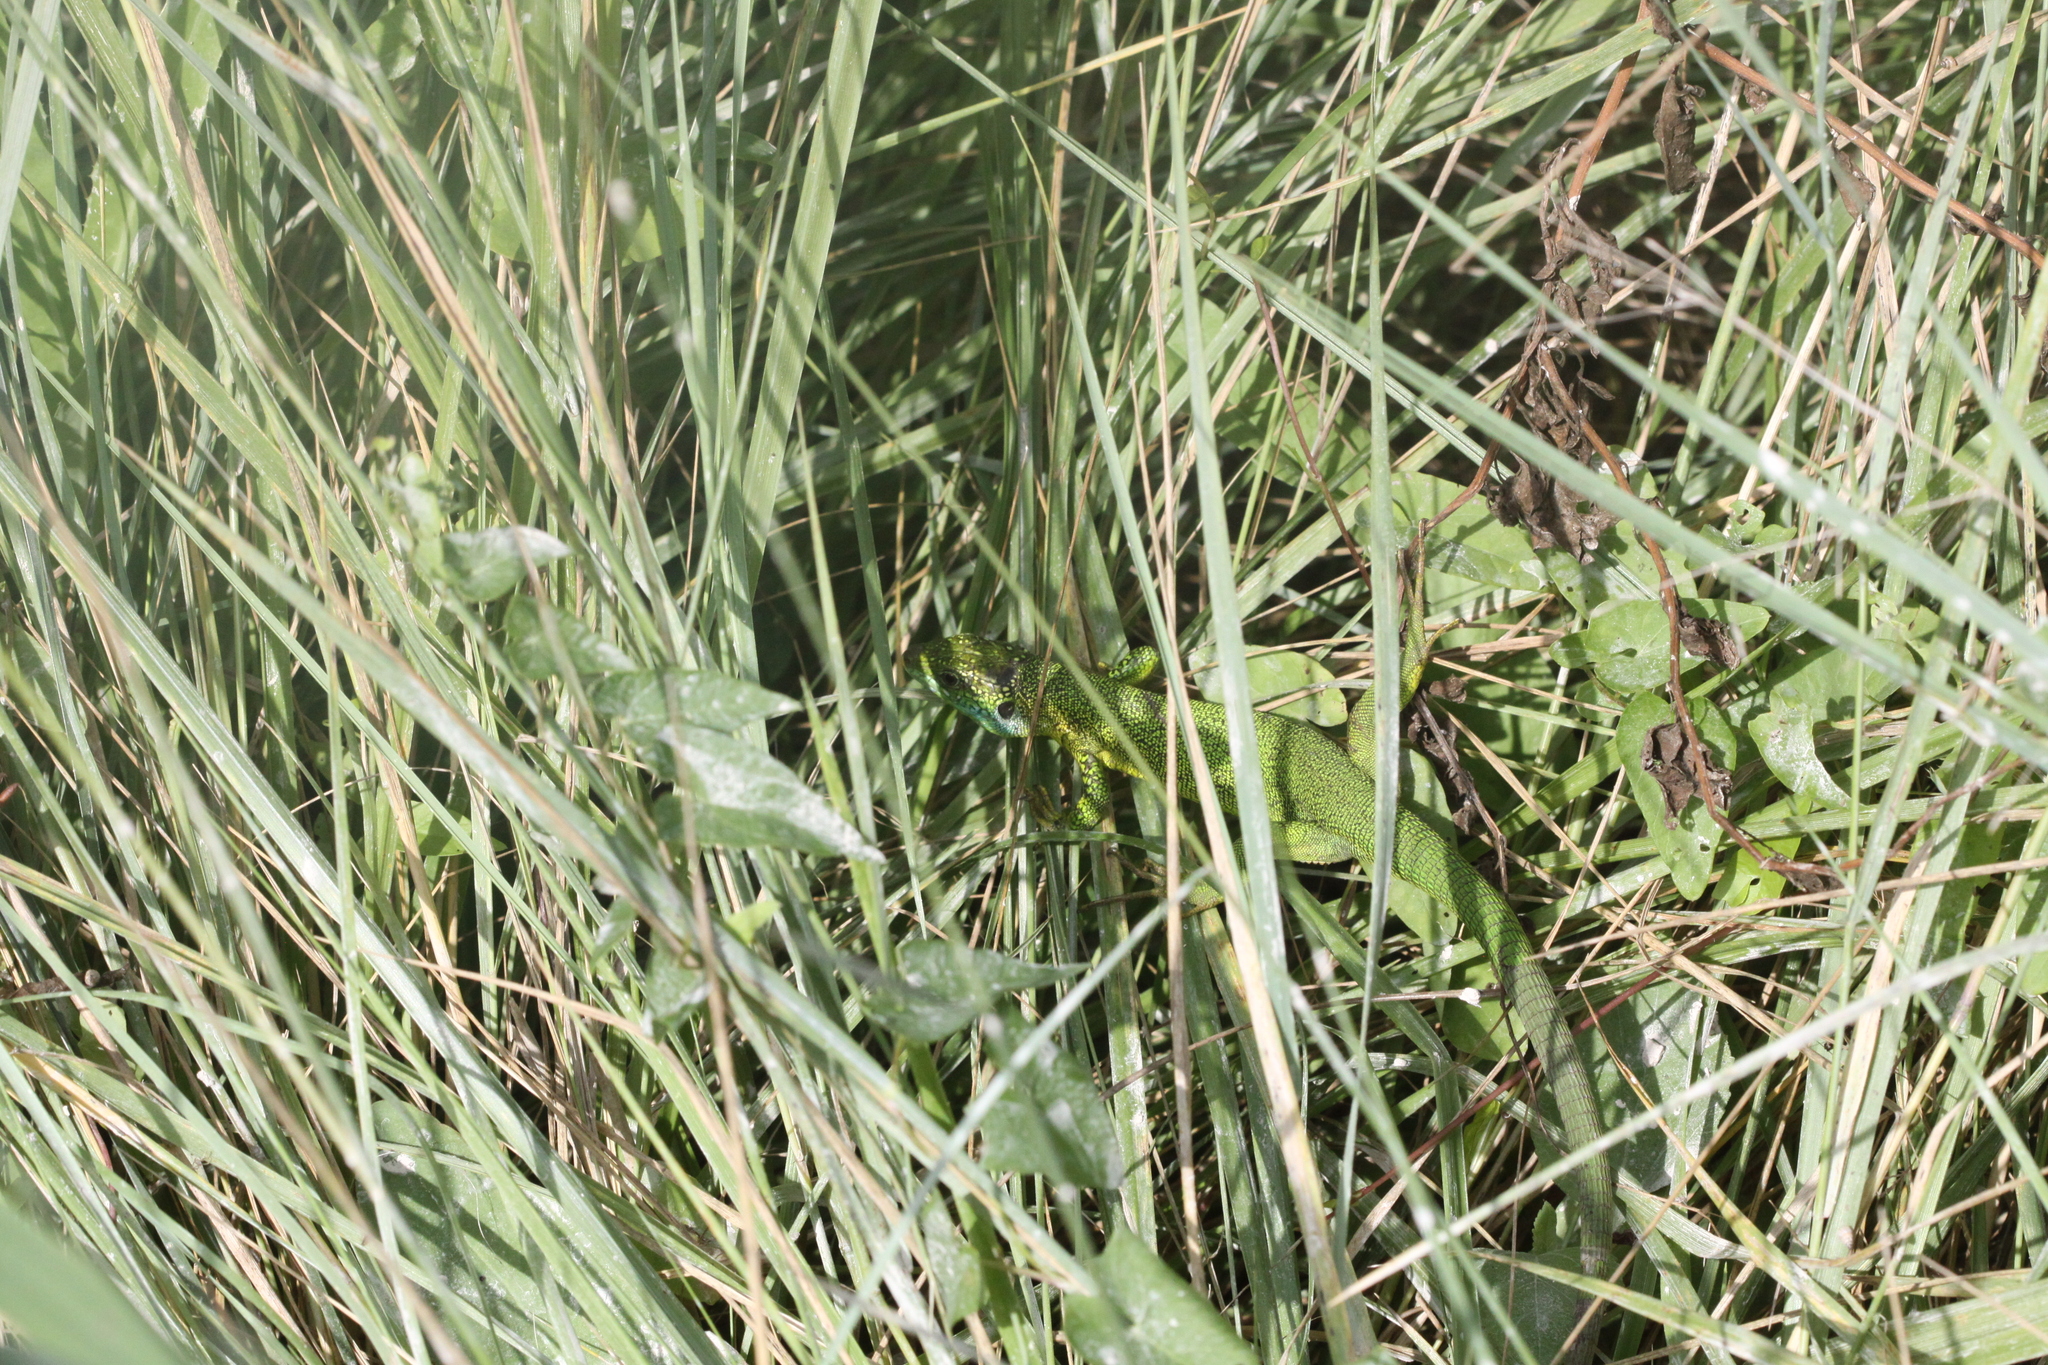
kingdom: Animalia
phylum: Chordata
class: Squamata
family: Lacertidae
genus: Lacerta
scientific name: Lacerta bilineata
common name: Western green lizard
